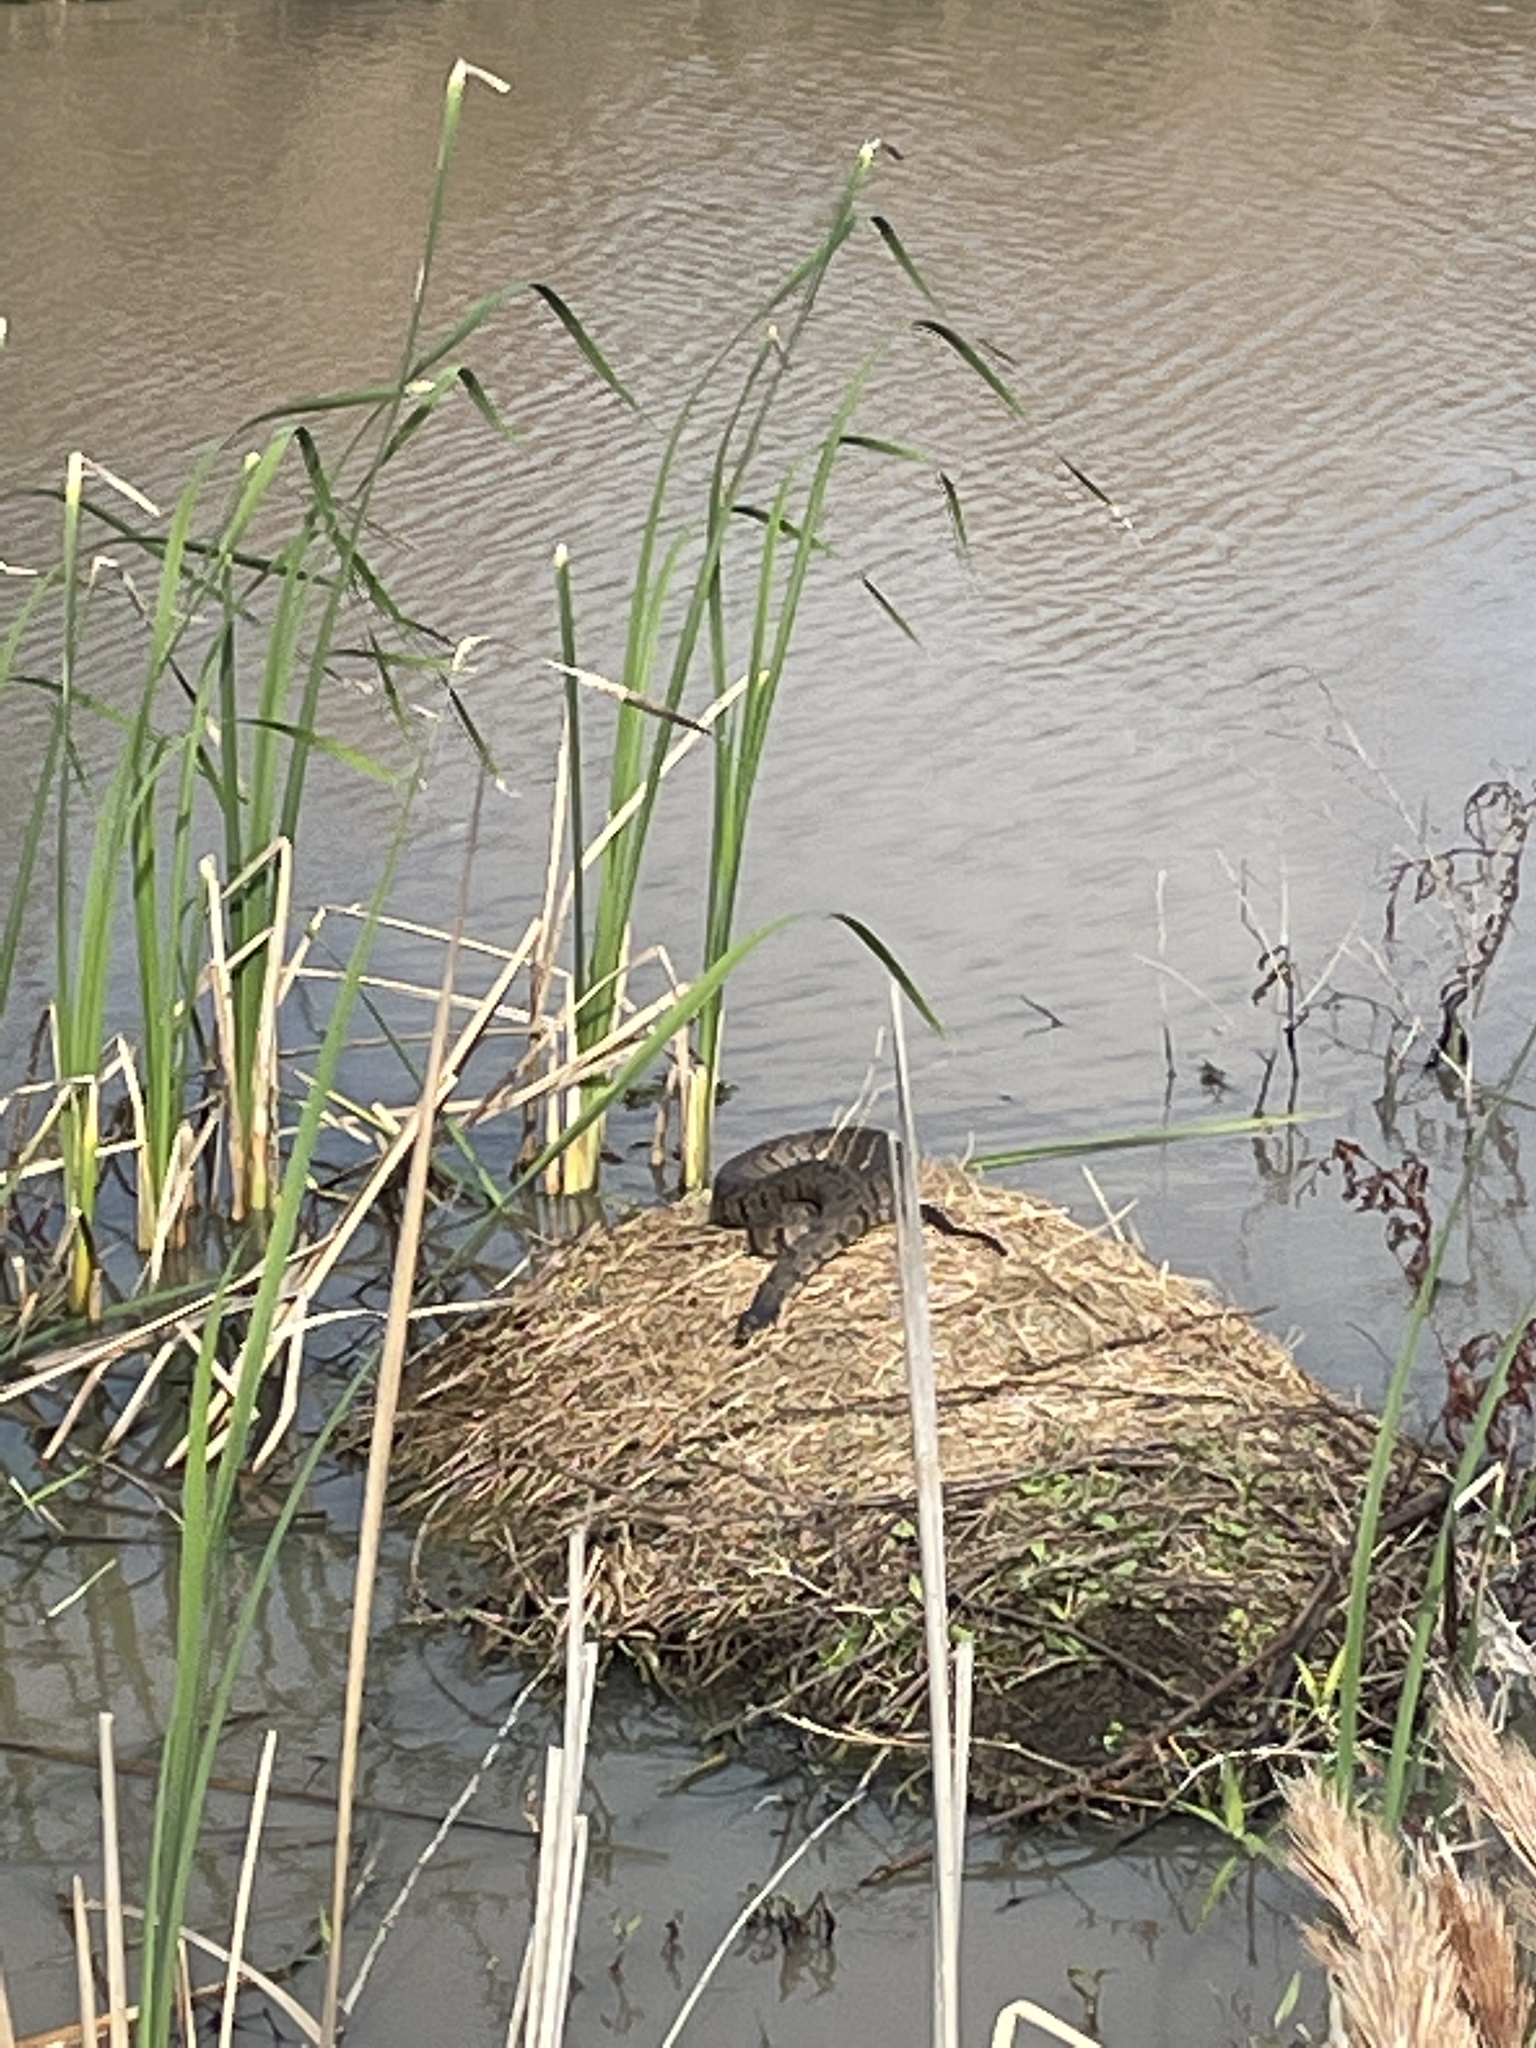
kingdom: Animalia
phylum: Chordata
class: Squamata
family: Colubridae
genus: Nerodia
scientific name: Nerodia rhombifer
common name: Diamondback water snake
